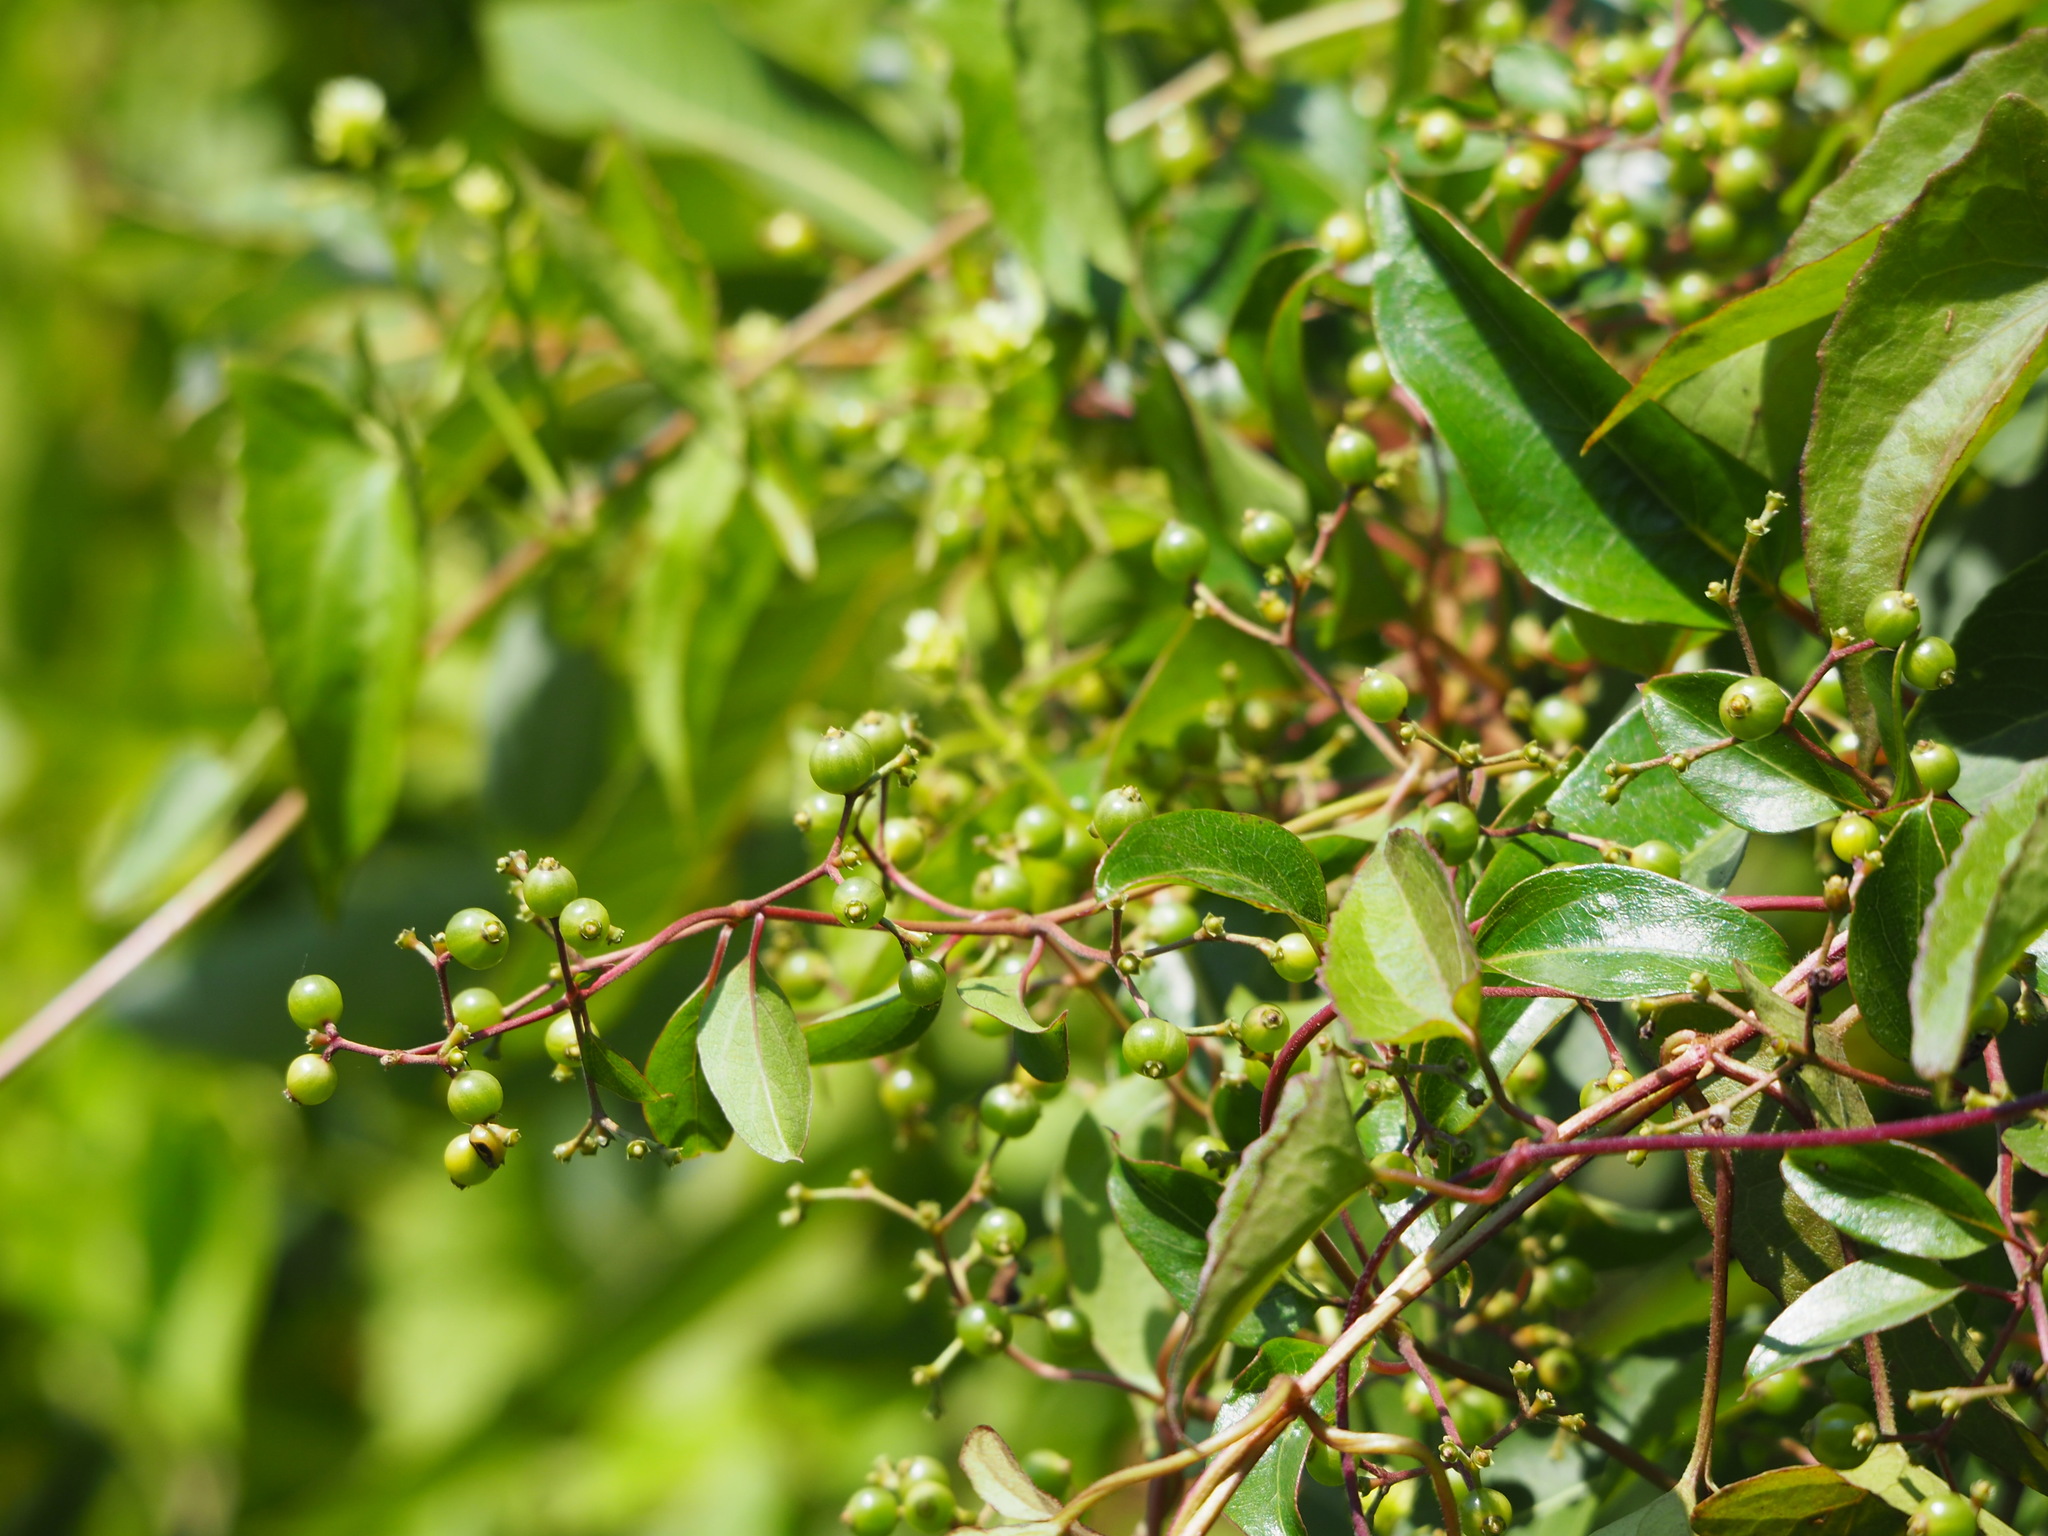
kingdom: Plantae
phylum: Tracheophyta
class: Magnoliopsida
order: Gentianales
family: Rubiaceae
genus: Paederia
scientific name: Paederia foetida
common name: Stinkvine
